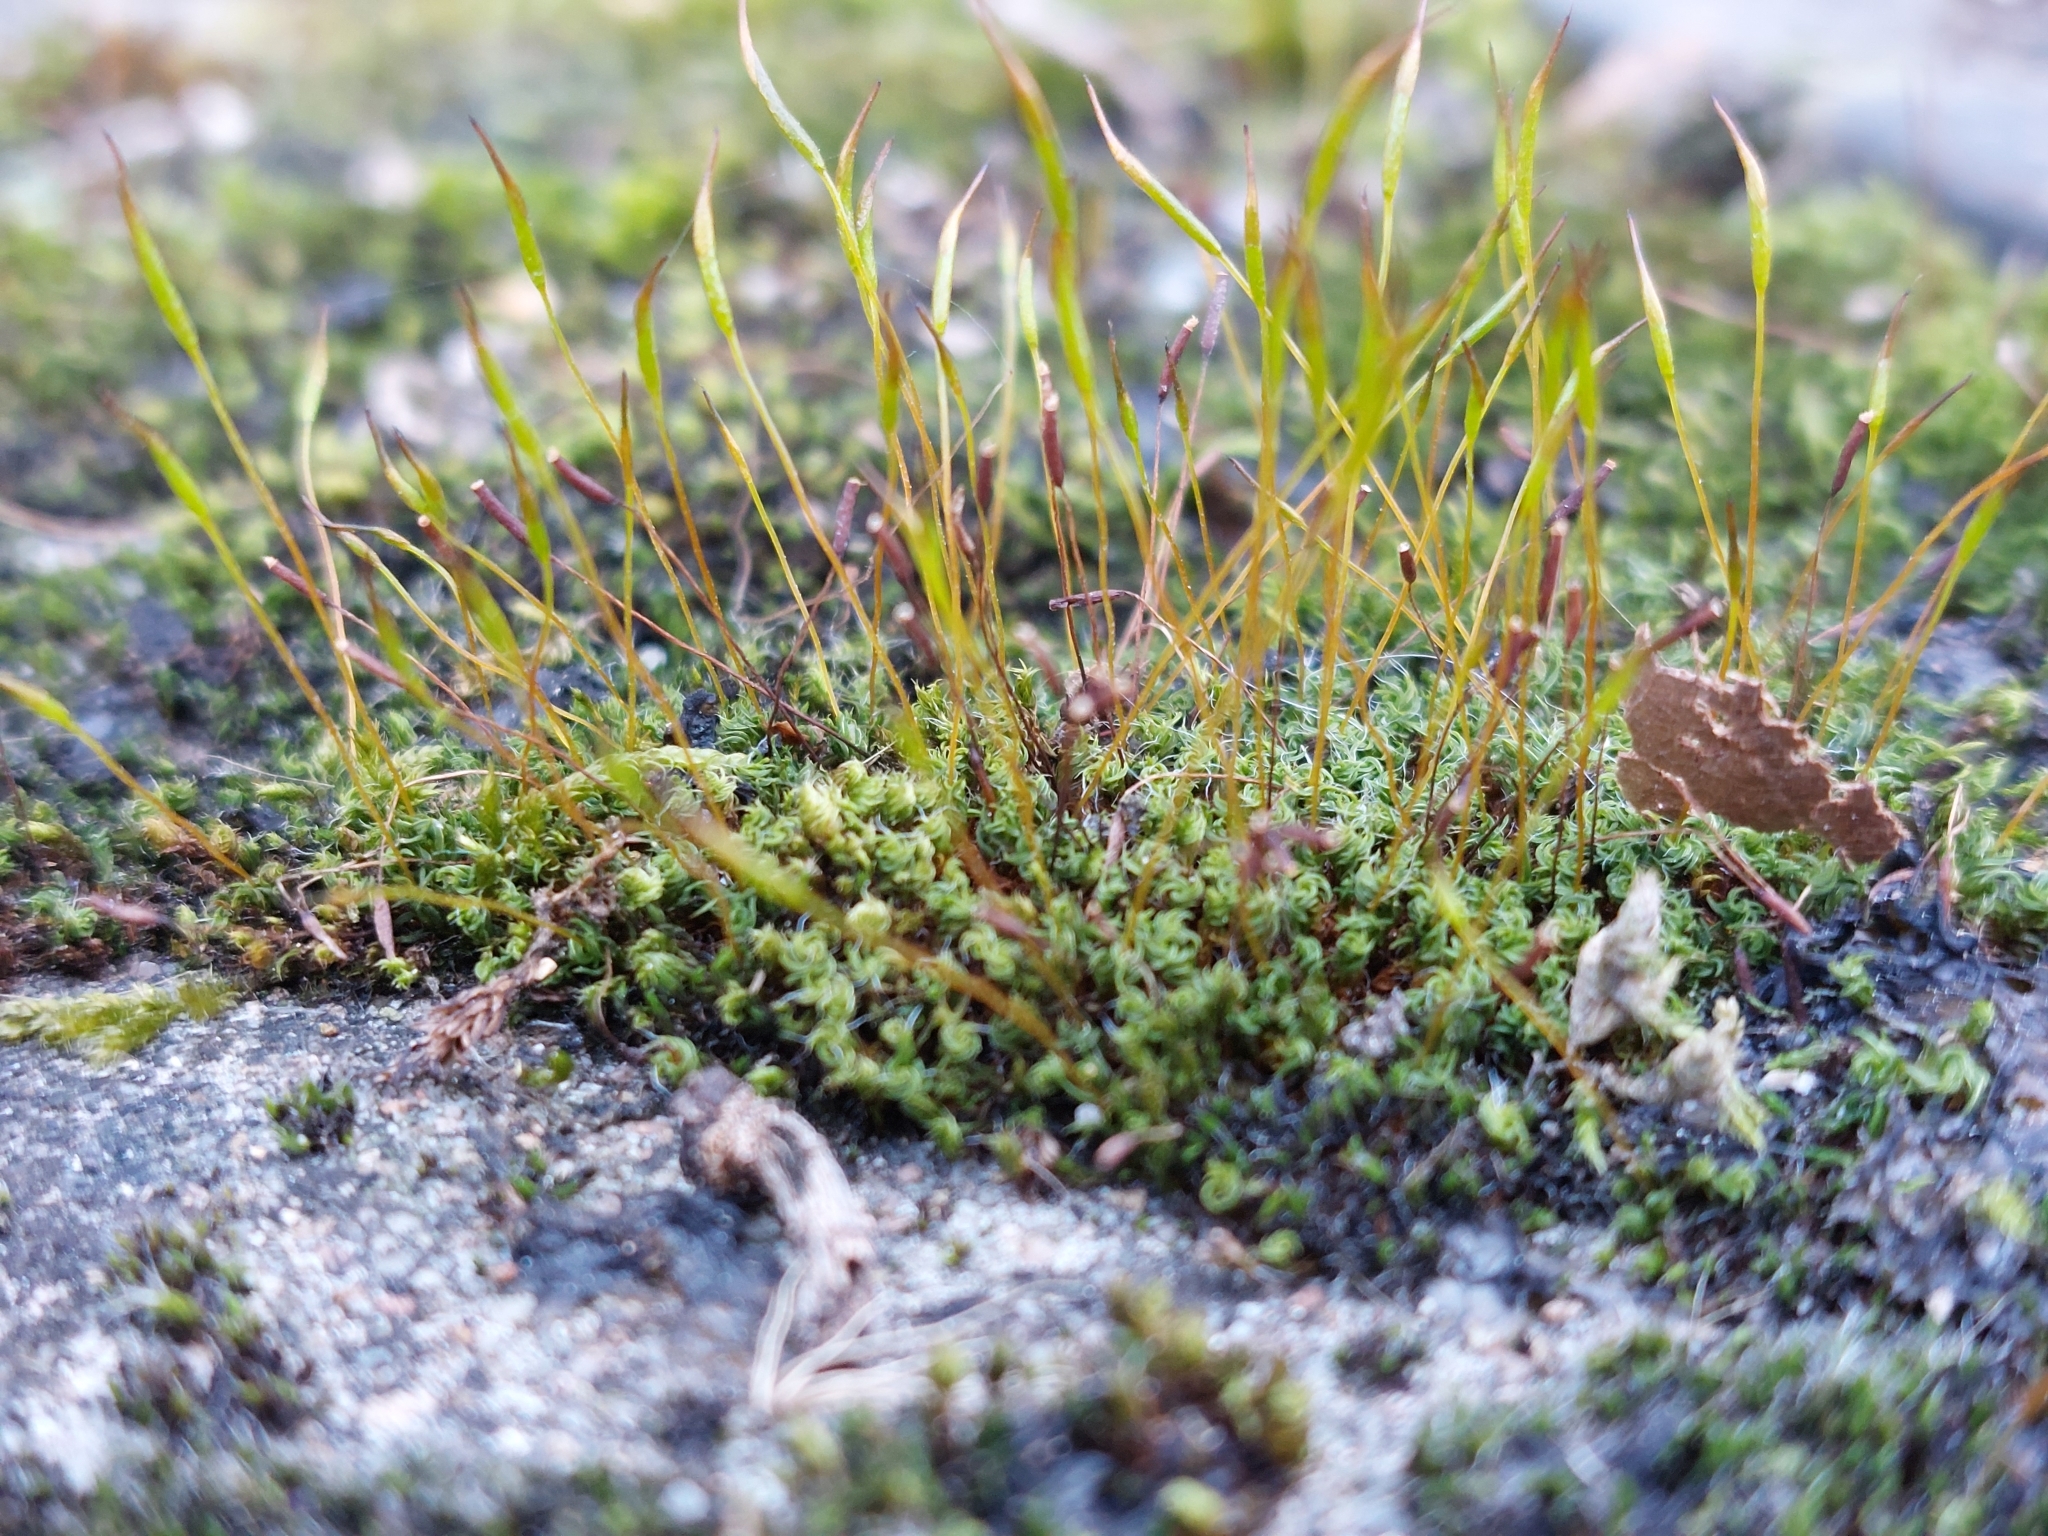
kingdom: Plantae
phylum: Bryophyta
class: Bryopsida
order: Pottiales
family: Pottiaceae
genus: Tortula
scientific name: Tortula muralis
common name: Wall screw-moss
